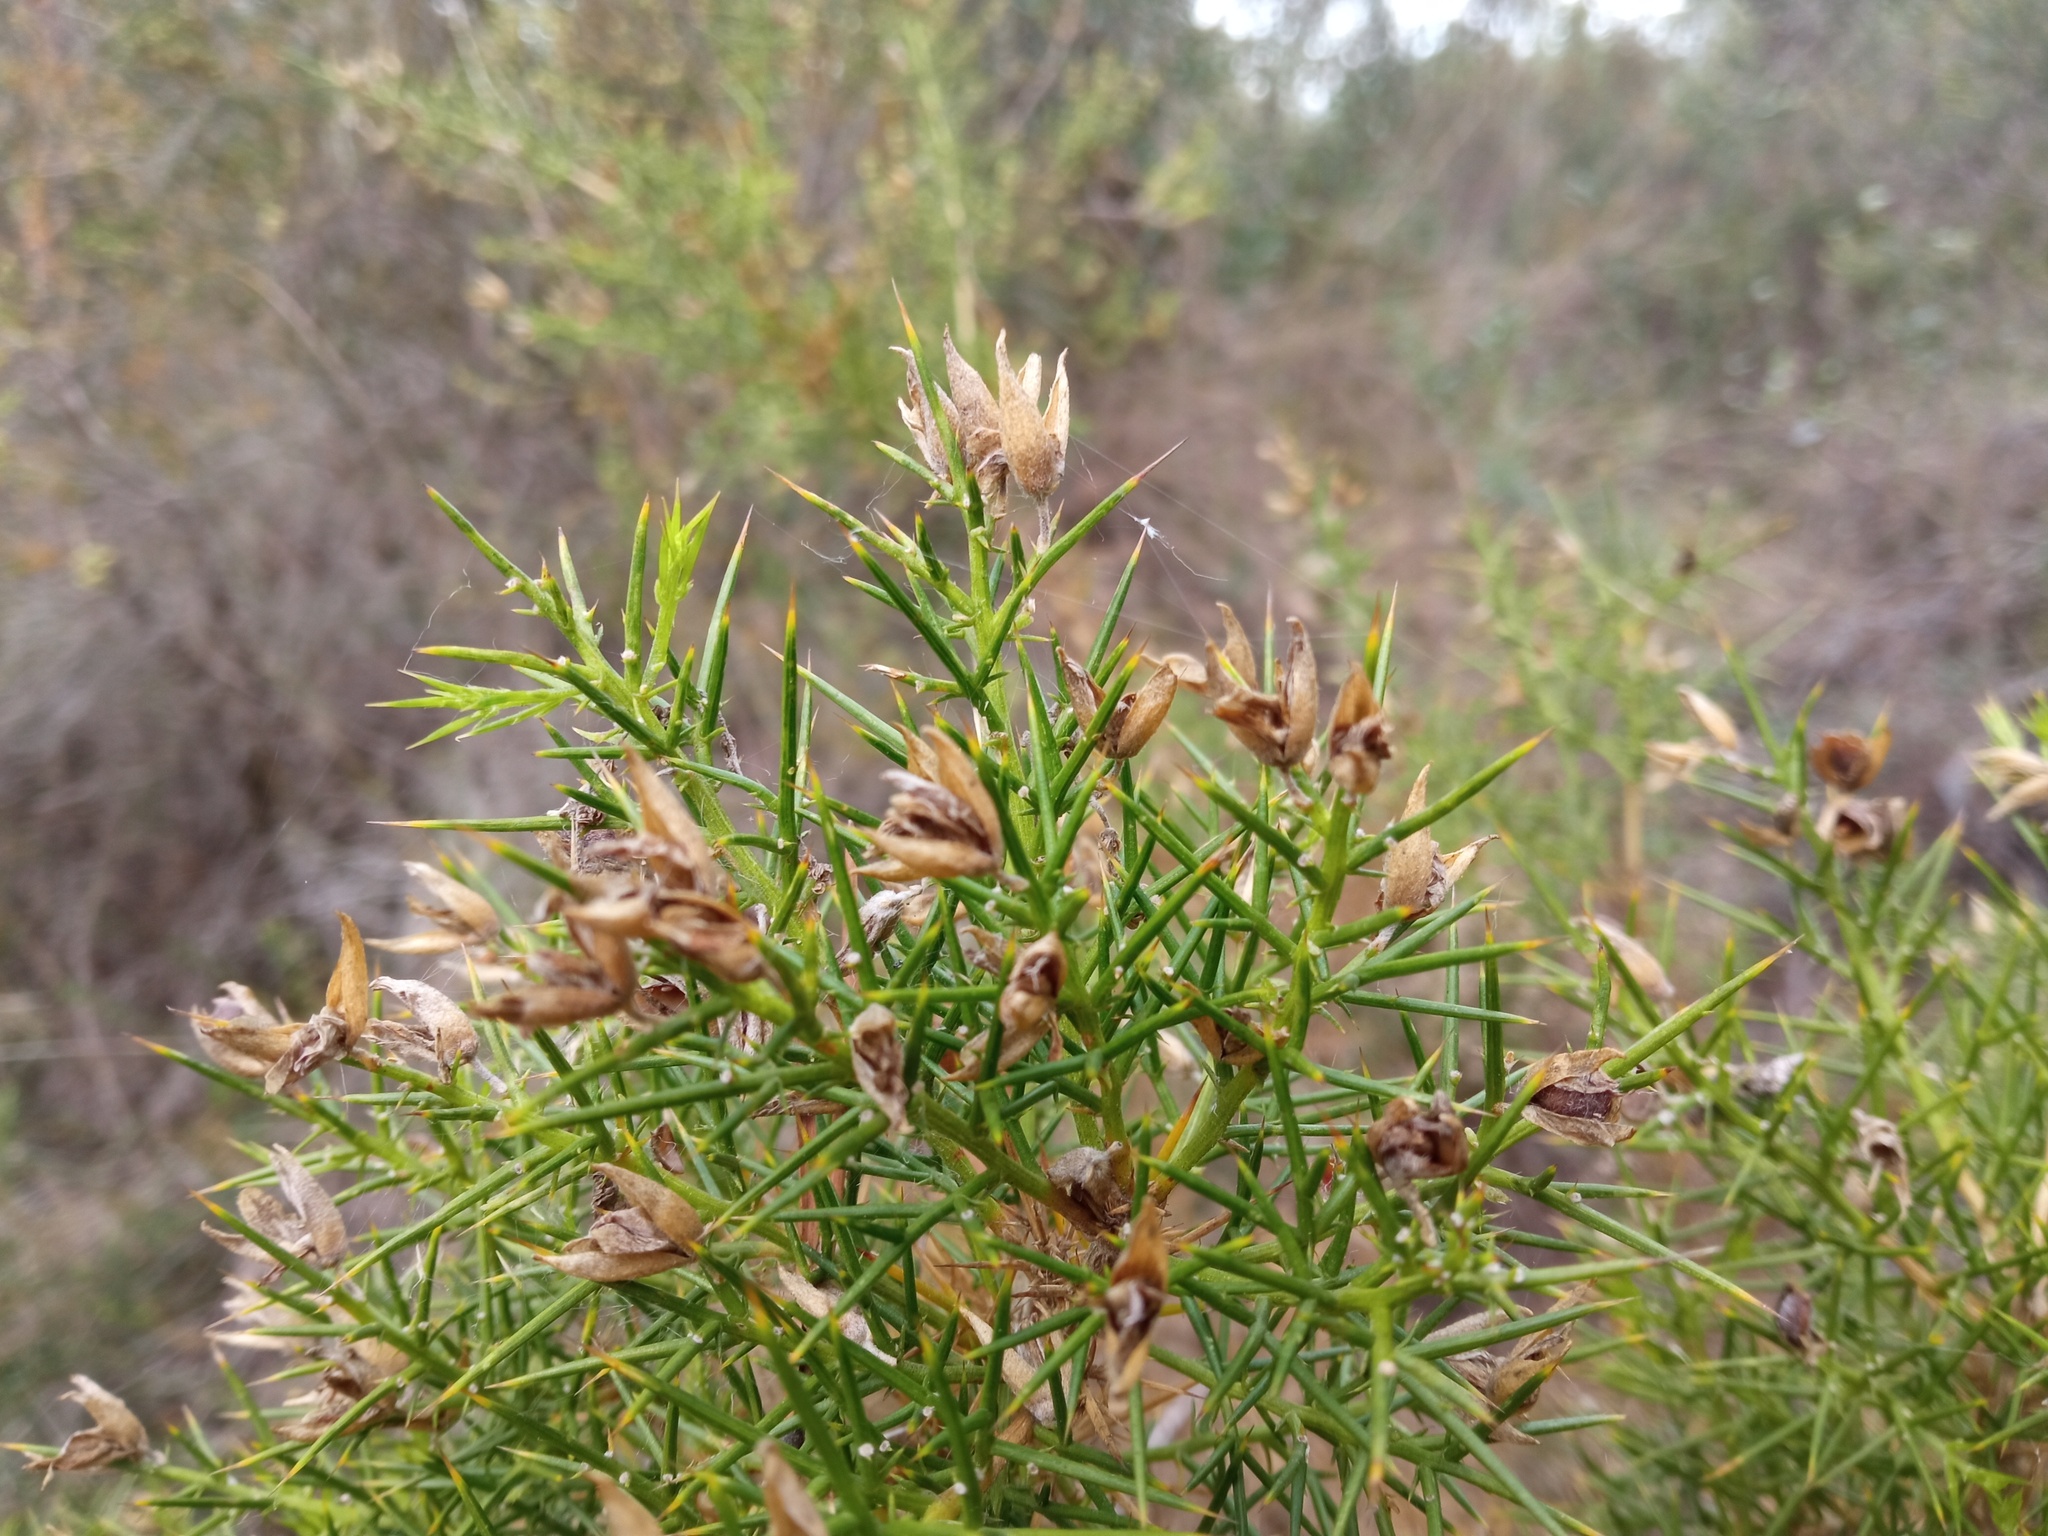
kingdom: Plantae
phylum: Tracheophyta
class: Magnoliopsida
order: Fabales
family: Fabaceae
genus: Ulex
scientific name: Ulex parviflorus
